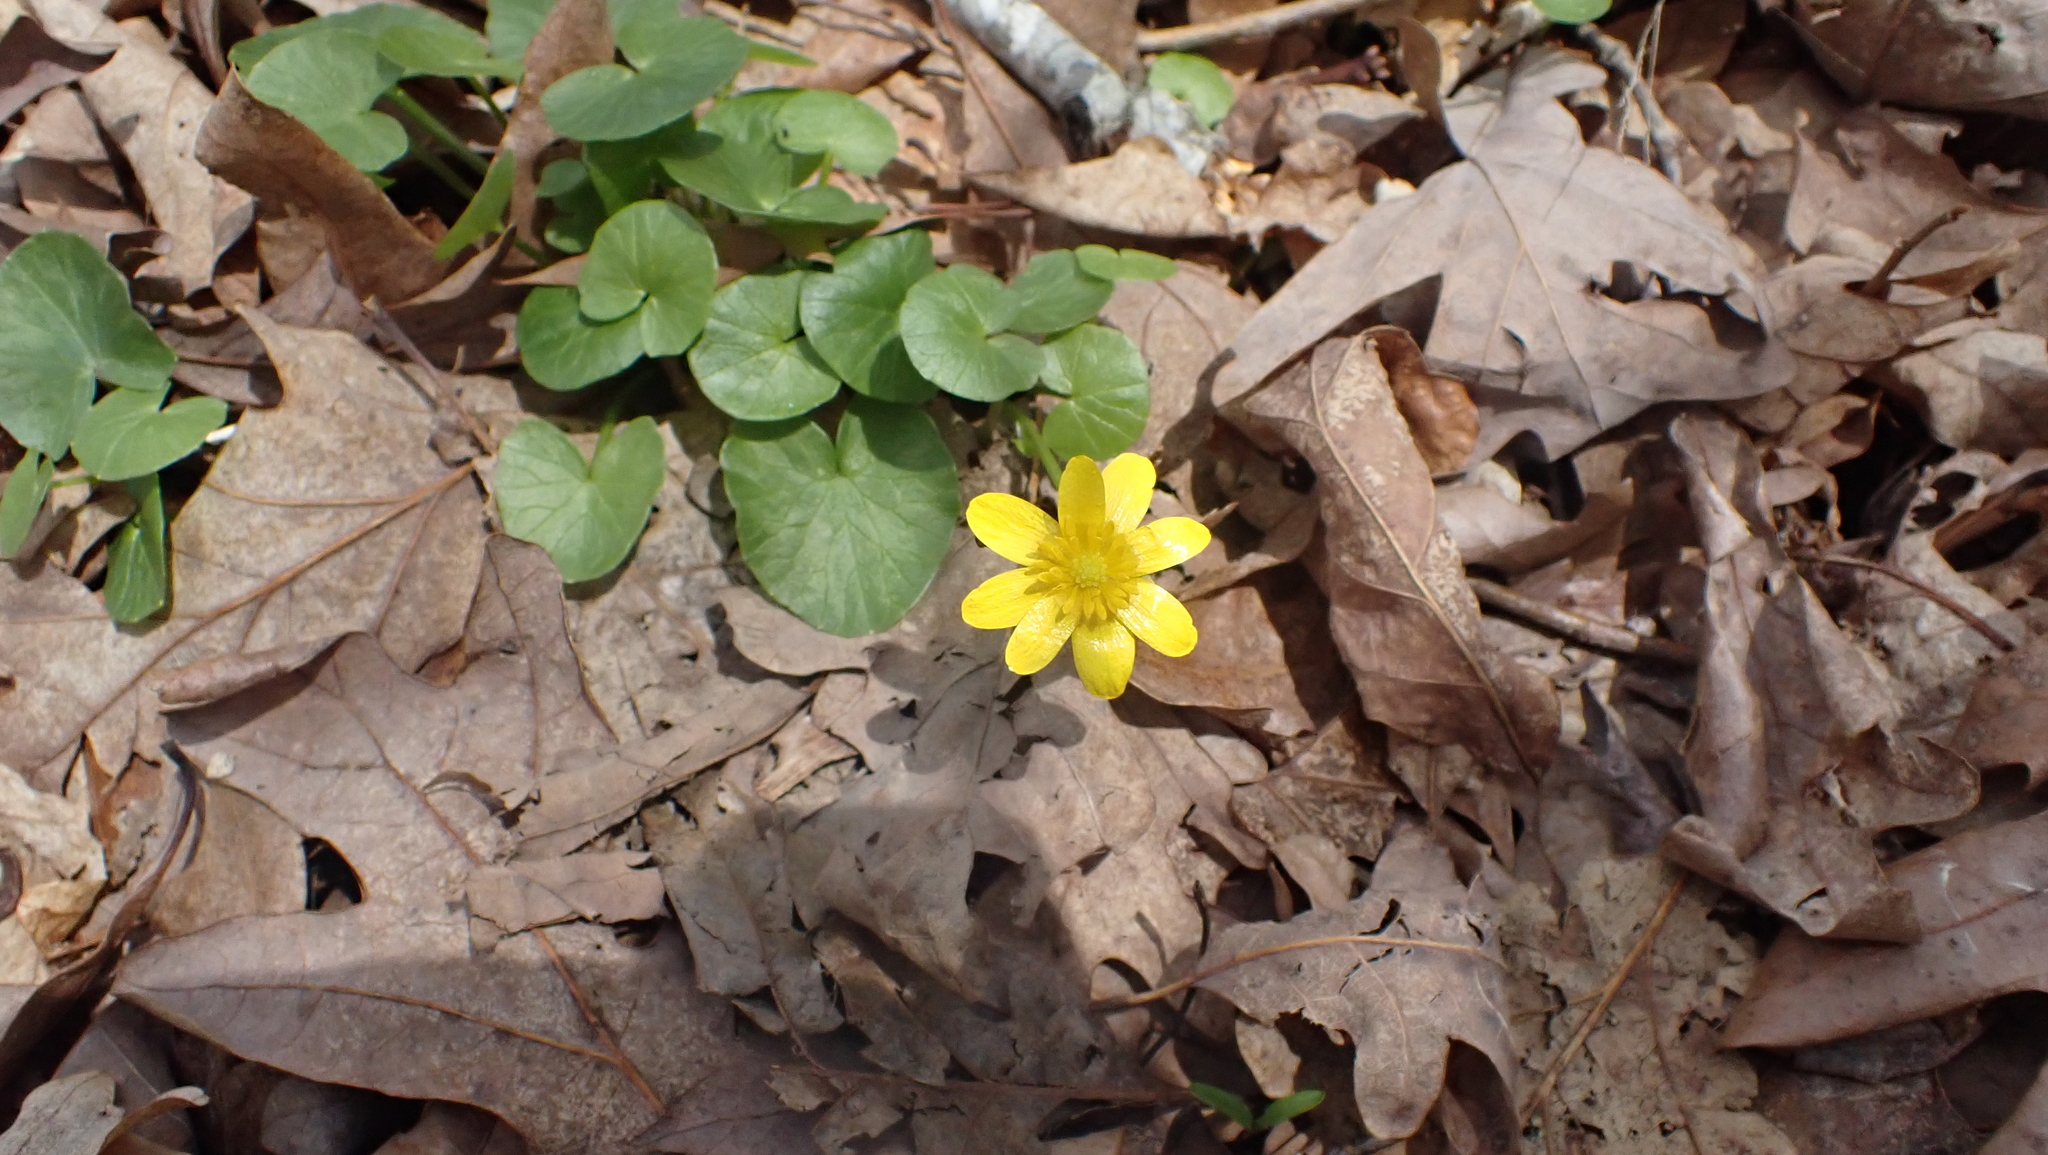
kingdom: Plantae
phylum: Tracheophyta
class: Magnoliopsida
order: Ranunculales
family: Ranunculaceae
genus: Ficaria
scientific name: Ficaria verna
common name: Lesser celandine
